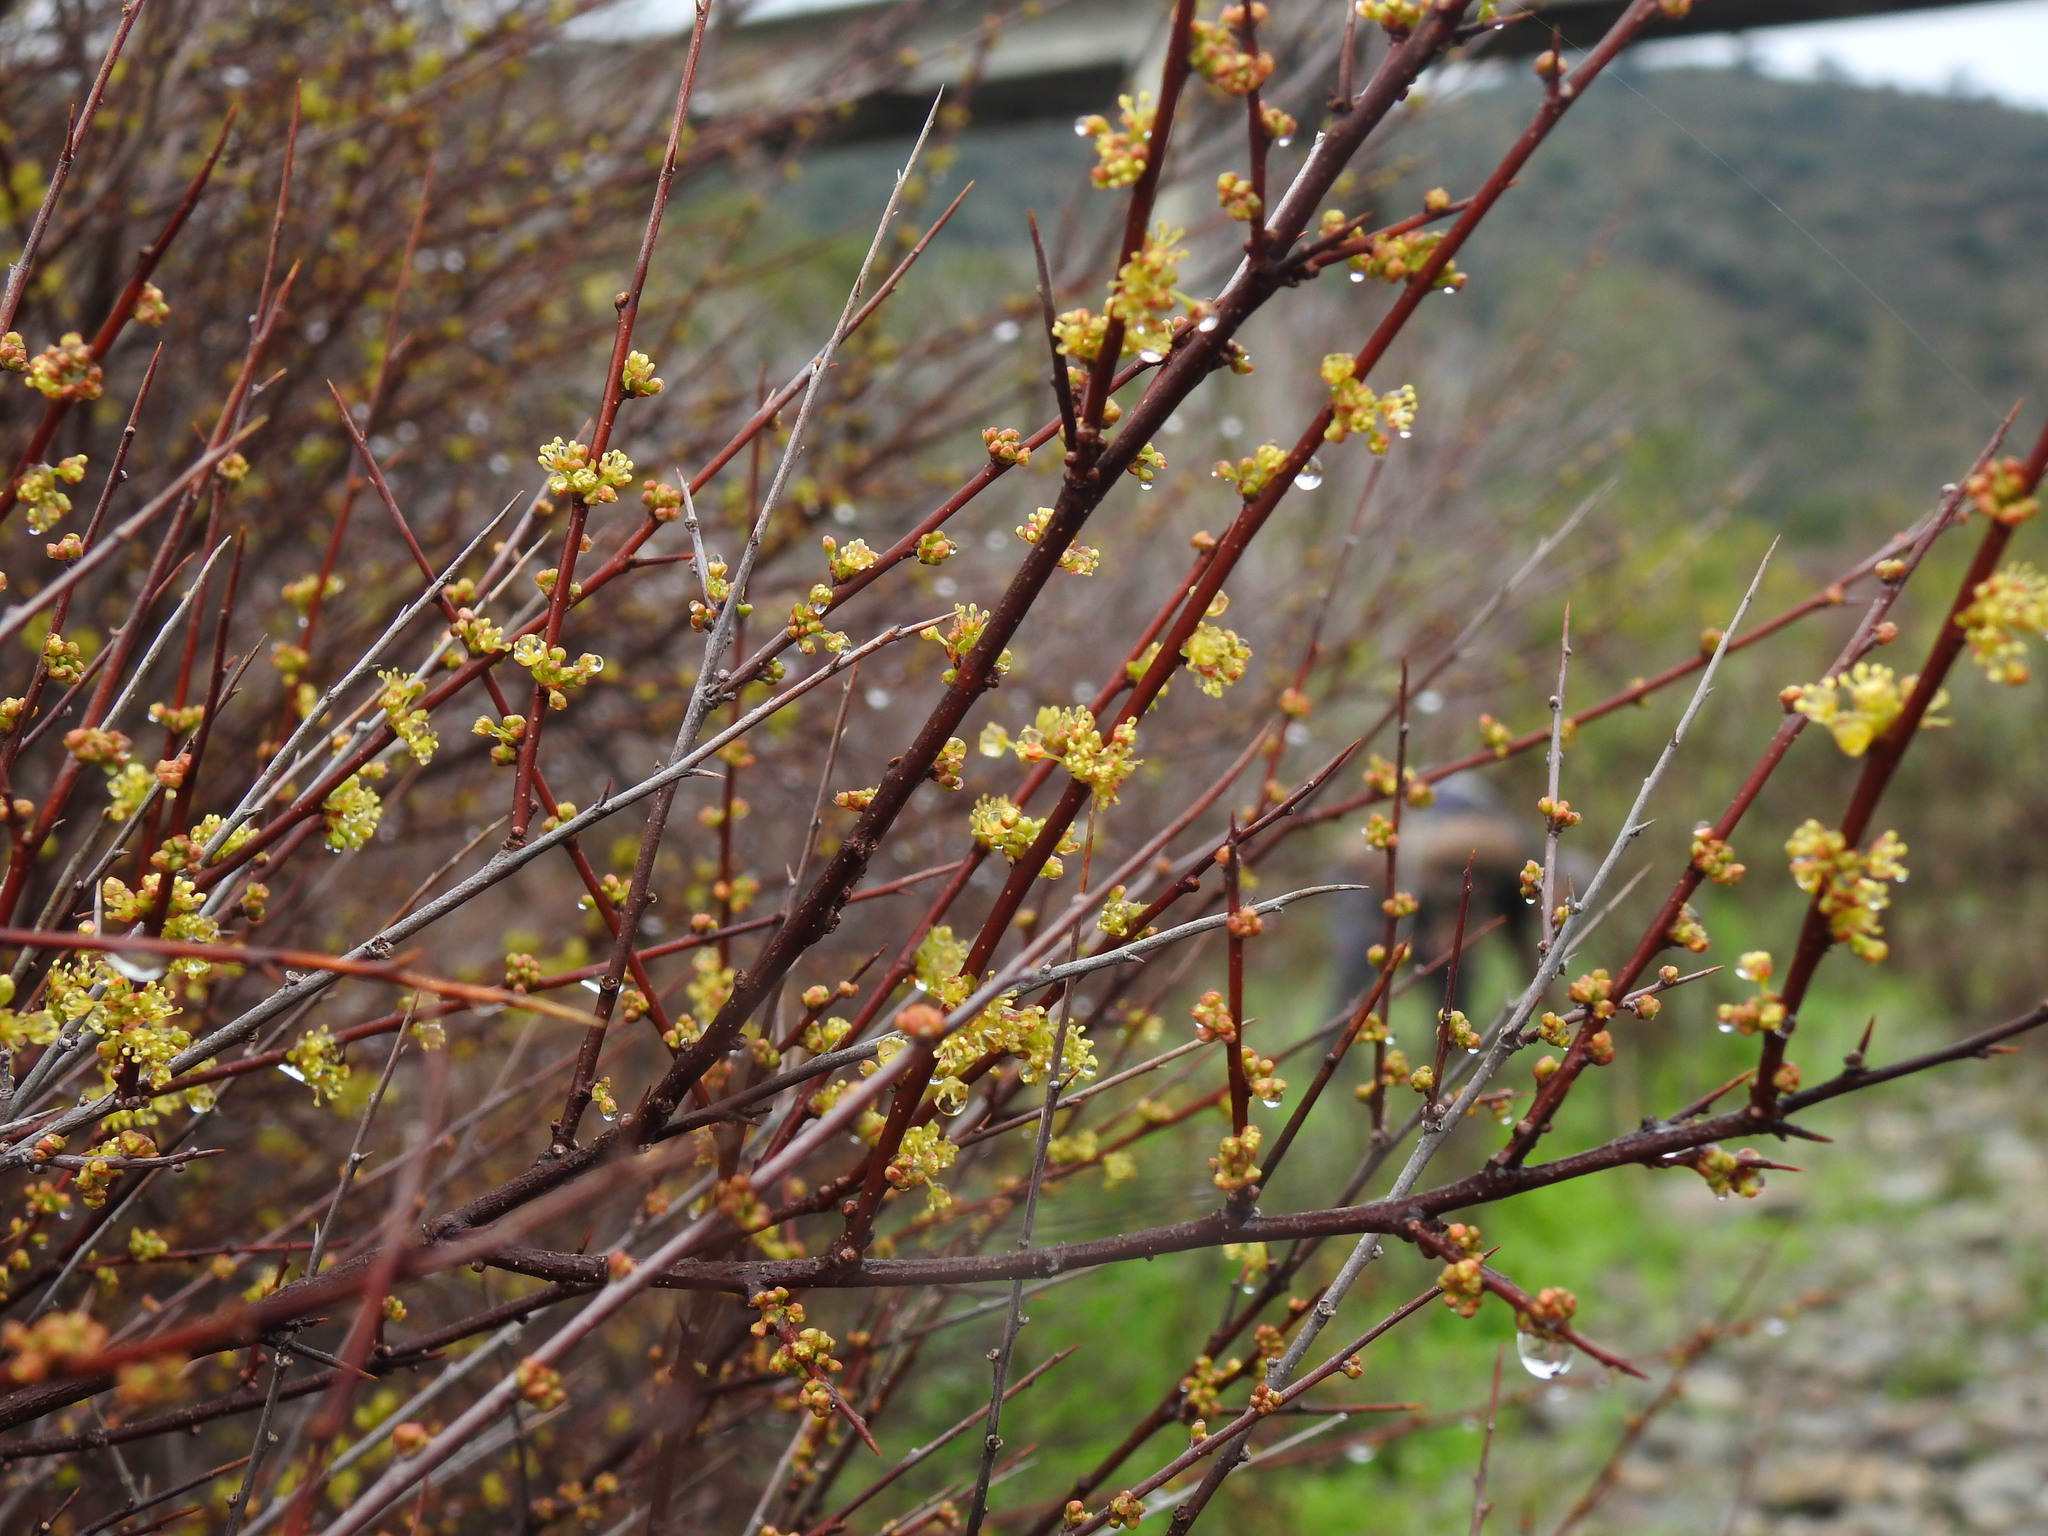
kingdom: Plantae
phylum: Tracheophyta
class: Magnoliopsida
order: Malpighiales
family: Phyllanthaceae
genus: Flueggea
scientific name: Flueggea tinctoria
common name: Tamujo
